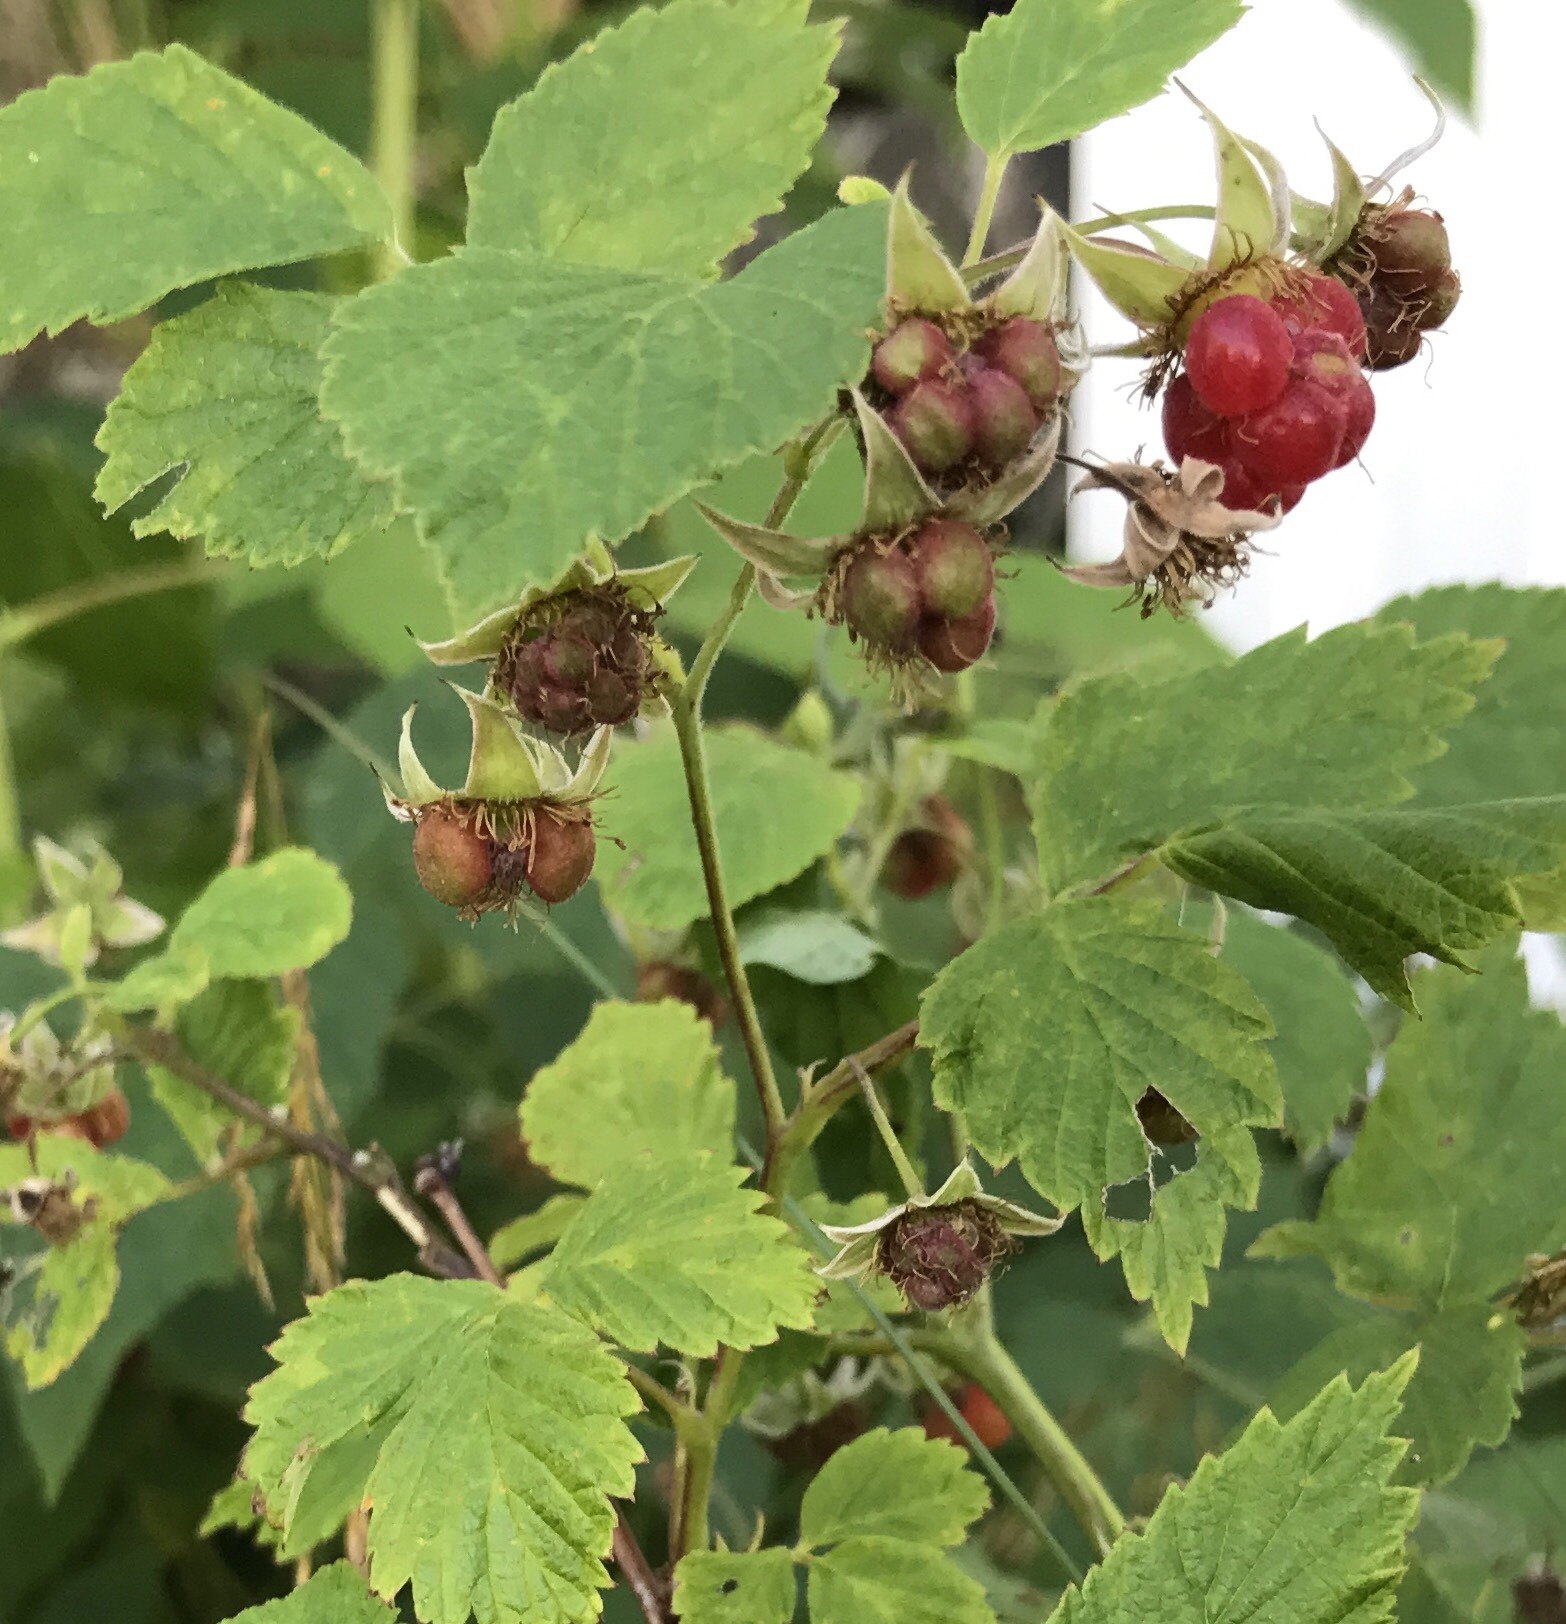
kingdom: Plantae
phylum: Tracheophyta
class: Magnoliopsida
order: Rosales
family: Rosaceae
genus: Rubus
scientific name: Rubus idaeus
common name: Raspberry
